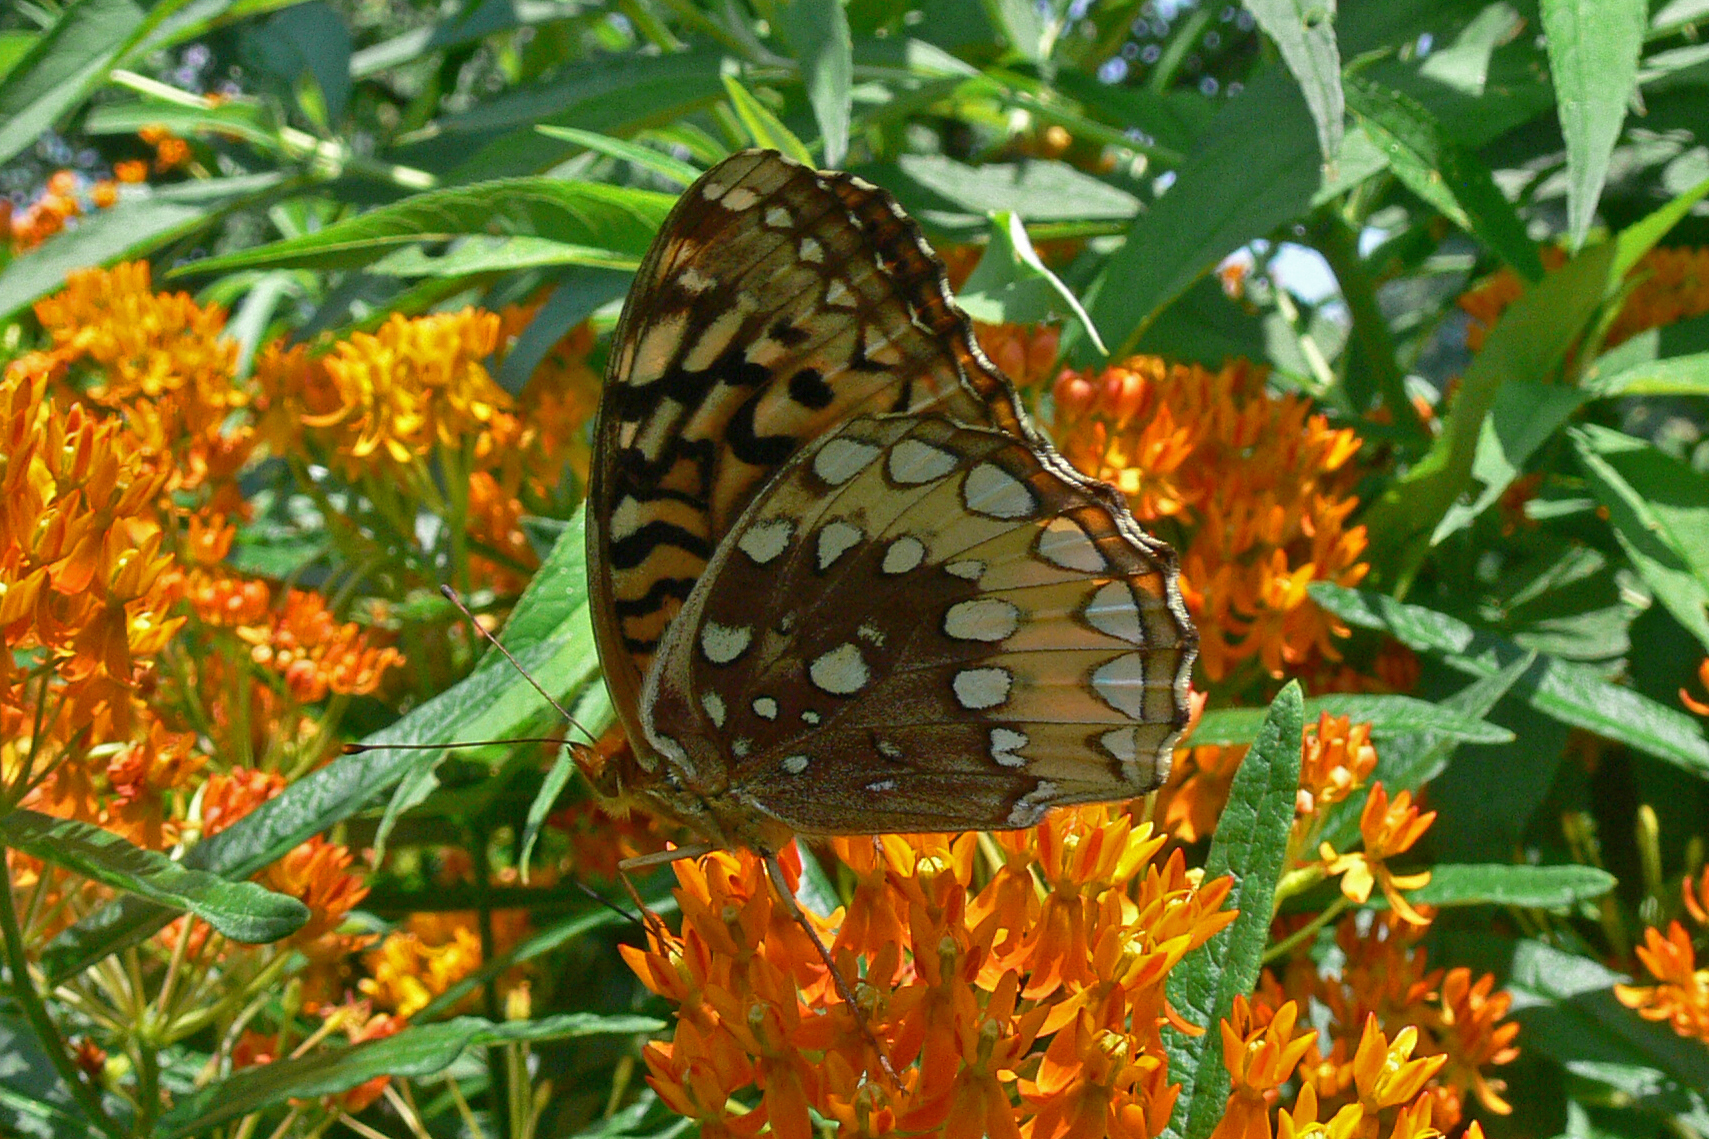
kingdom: Animalia
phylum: Arthropoda
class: Insecta
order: Lepidoptera
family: Nymphalidae
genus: Speyeria
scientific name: Speyeria cybele
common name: Great spangled fritillary
